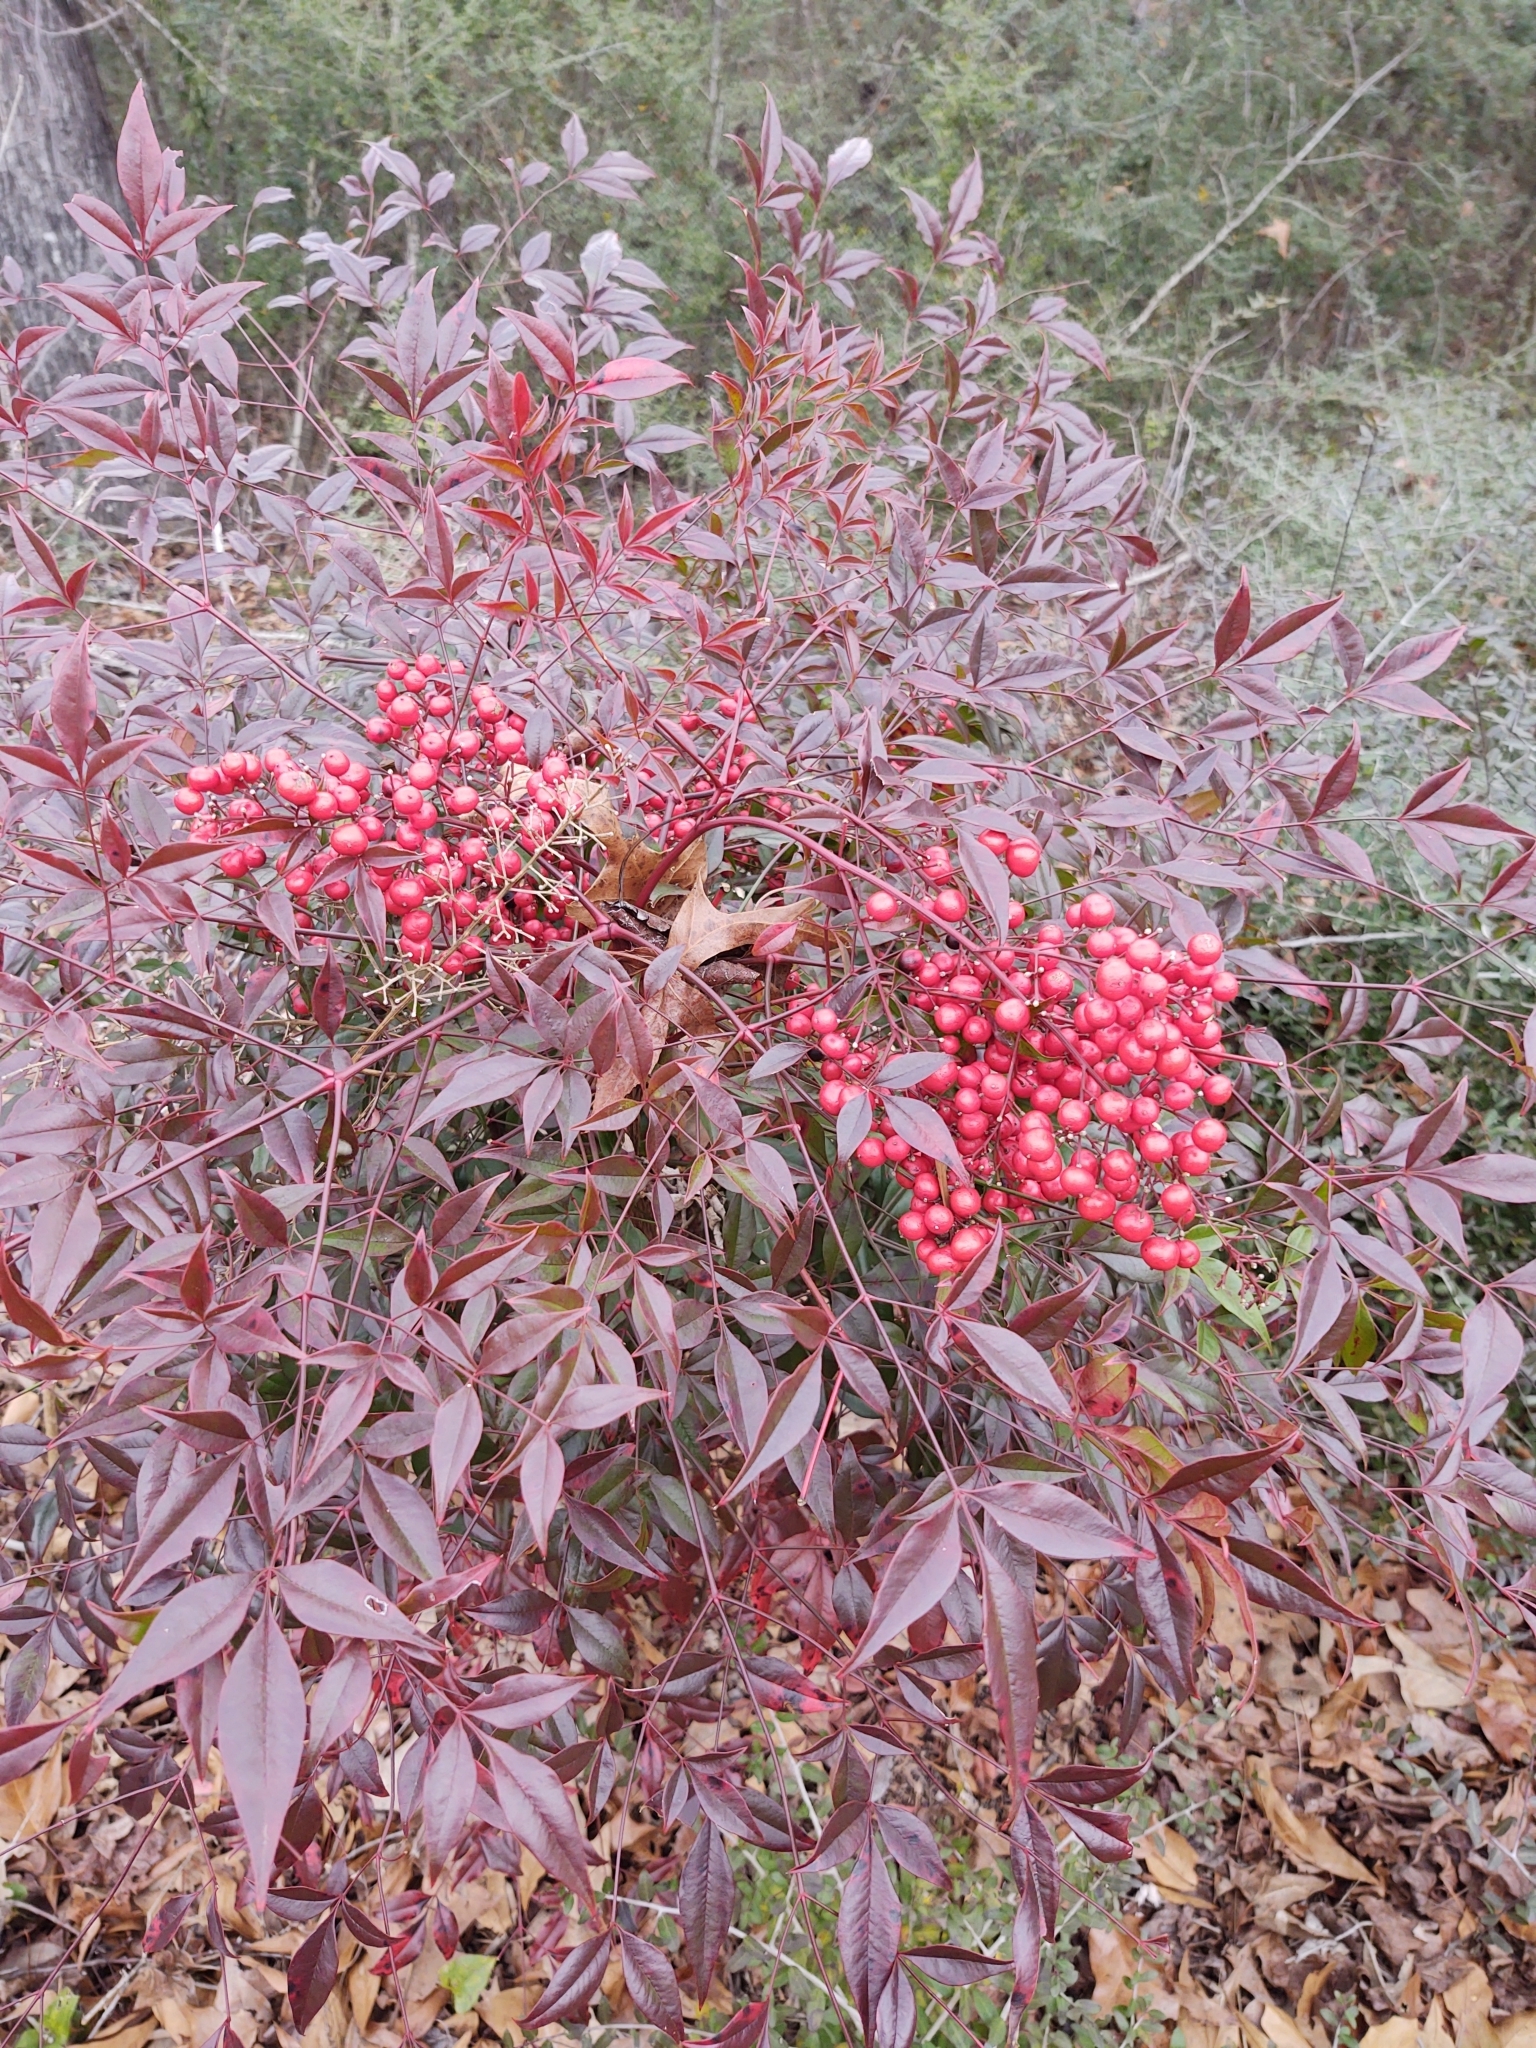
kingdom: Plantae
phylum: Tracheophyta
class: Magnoliopsida
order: Ranunculales
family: Berberidaceae
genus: Nandina
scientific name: Nandina domestica
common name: Sacred bamboo
